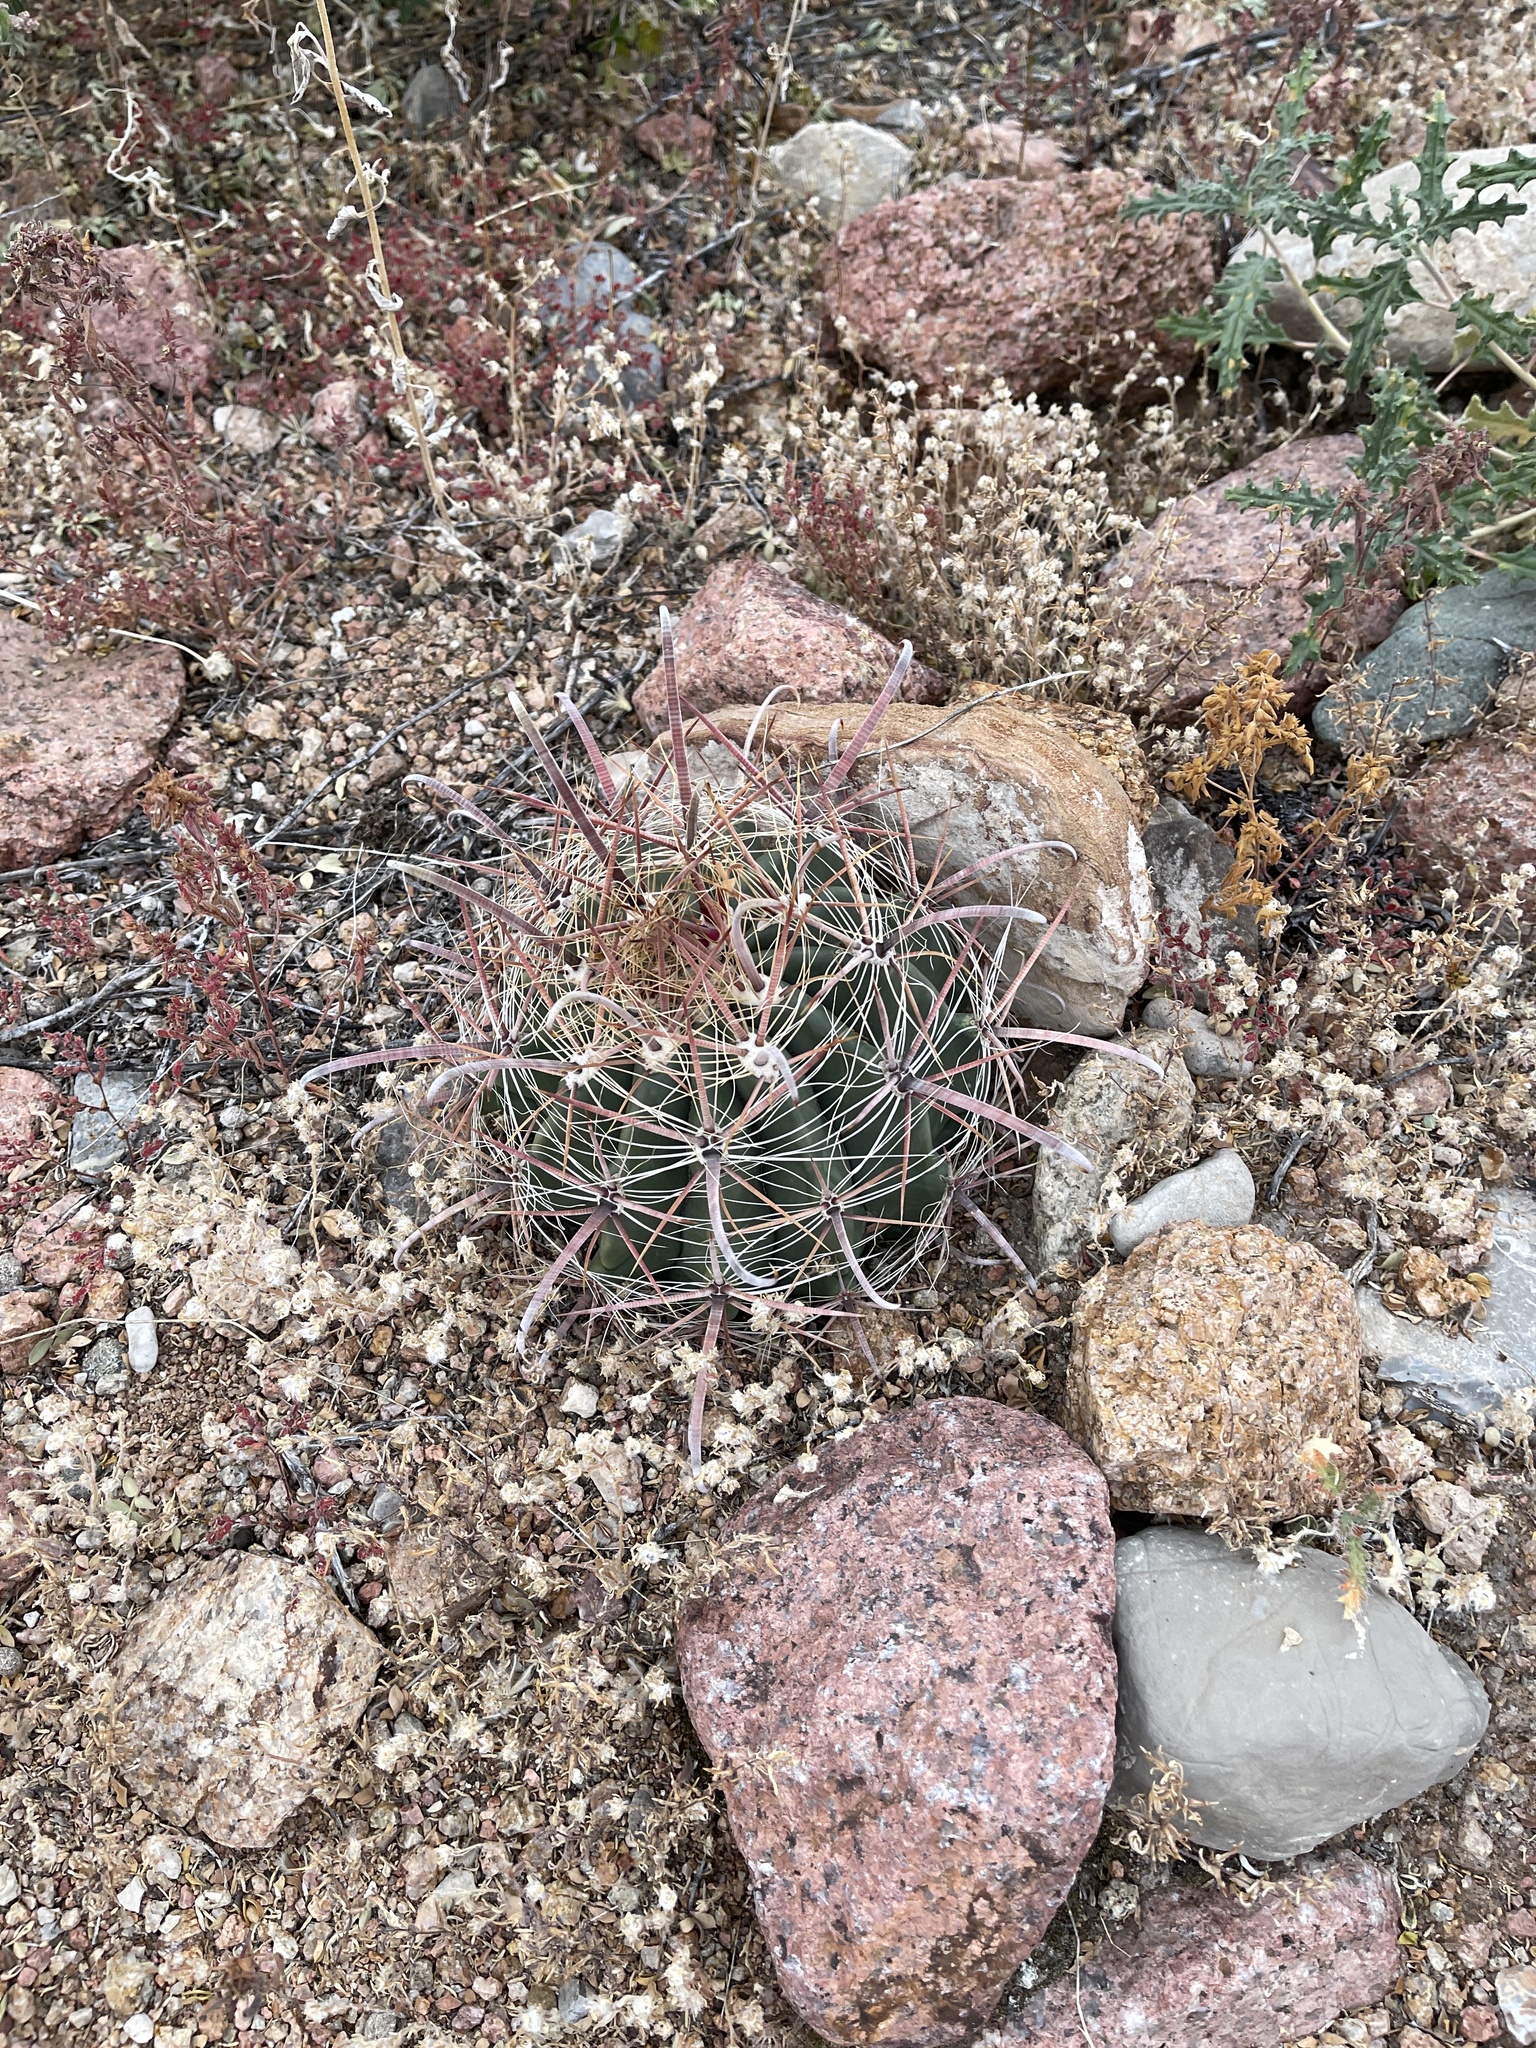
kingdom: Plantae
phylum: Tracheophyta
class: Magnoliopsida
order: Caryophyllales
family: Cactaceae
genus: Ferocactus
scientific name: Ferocactus wislizeni
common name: Candy barrel cactus
